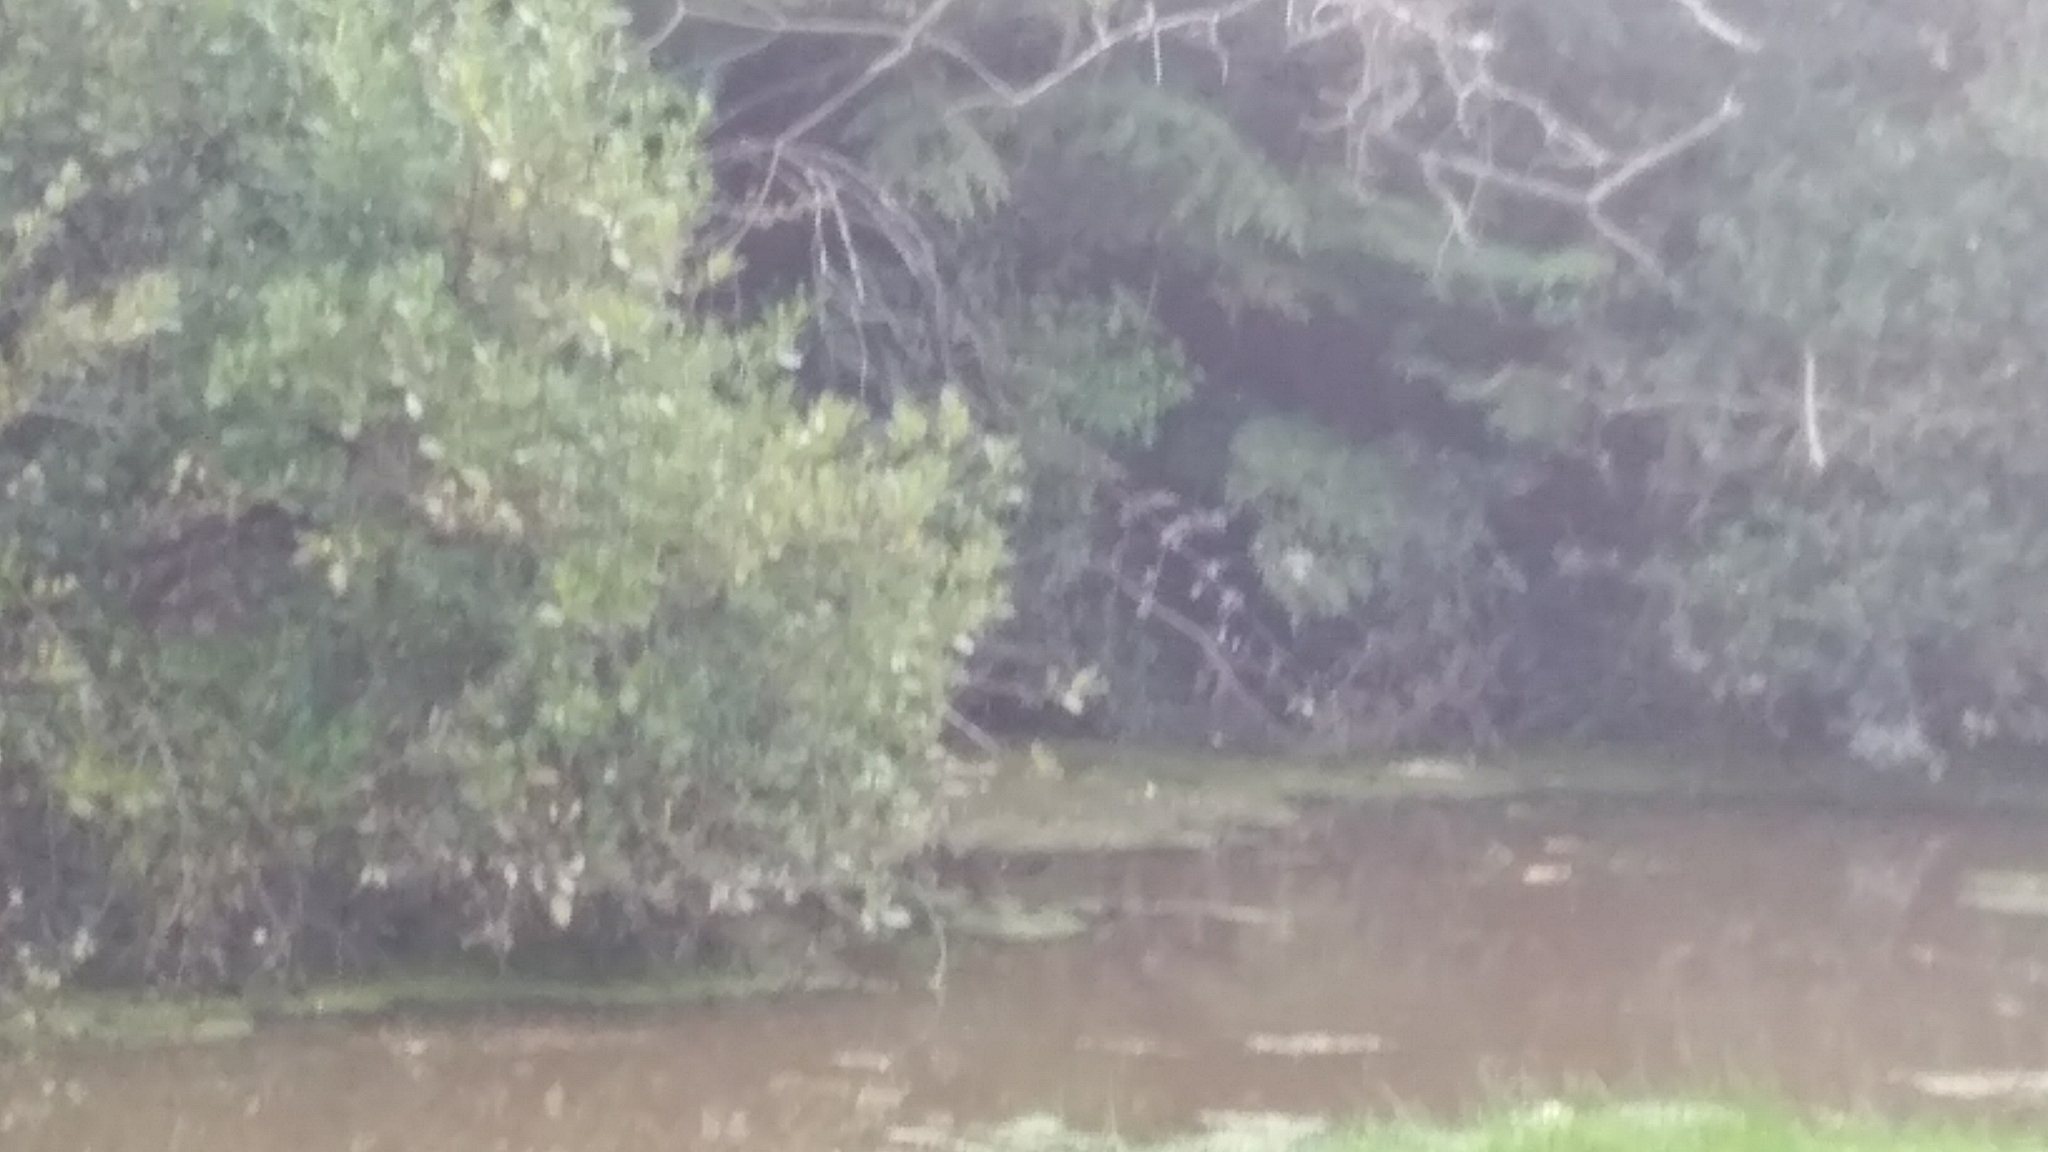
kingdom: Animalia
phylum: Chordata
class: Aves
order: Anseriformes
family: Anatidae
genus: Anas
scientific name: Anas chlorotis
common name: Brown teal
